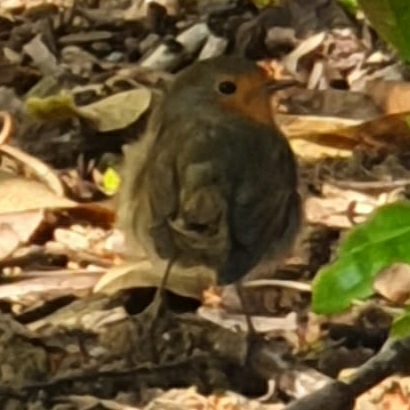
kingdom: Animalia
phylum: Chordata
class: Aves
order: Passeriformes
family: Muscicapidae
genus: Erithacus
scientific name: Erithacus rubecula
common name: European robin
